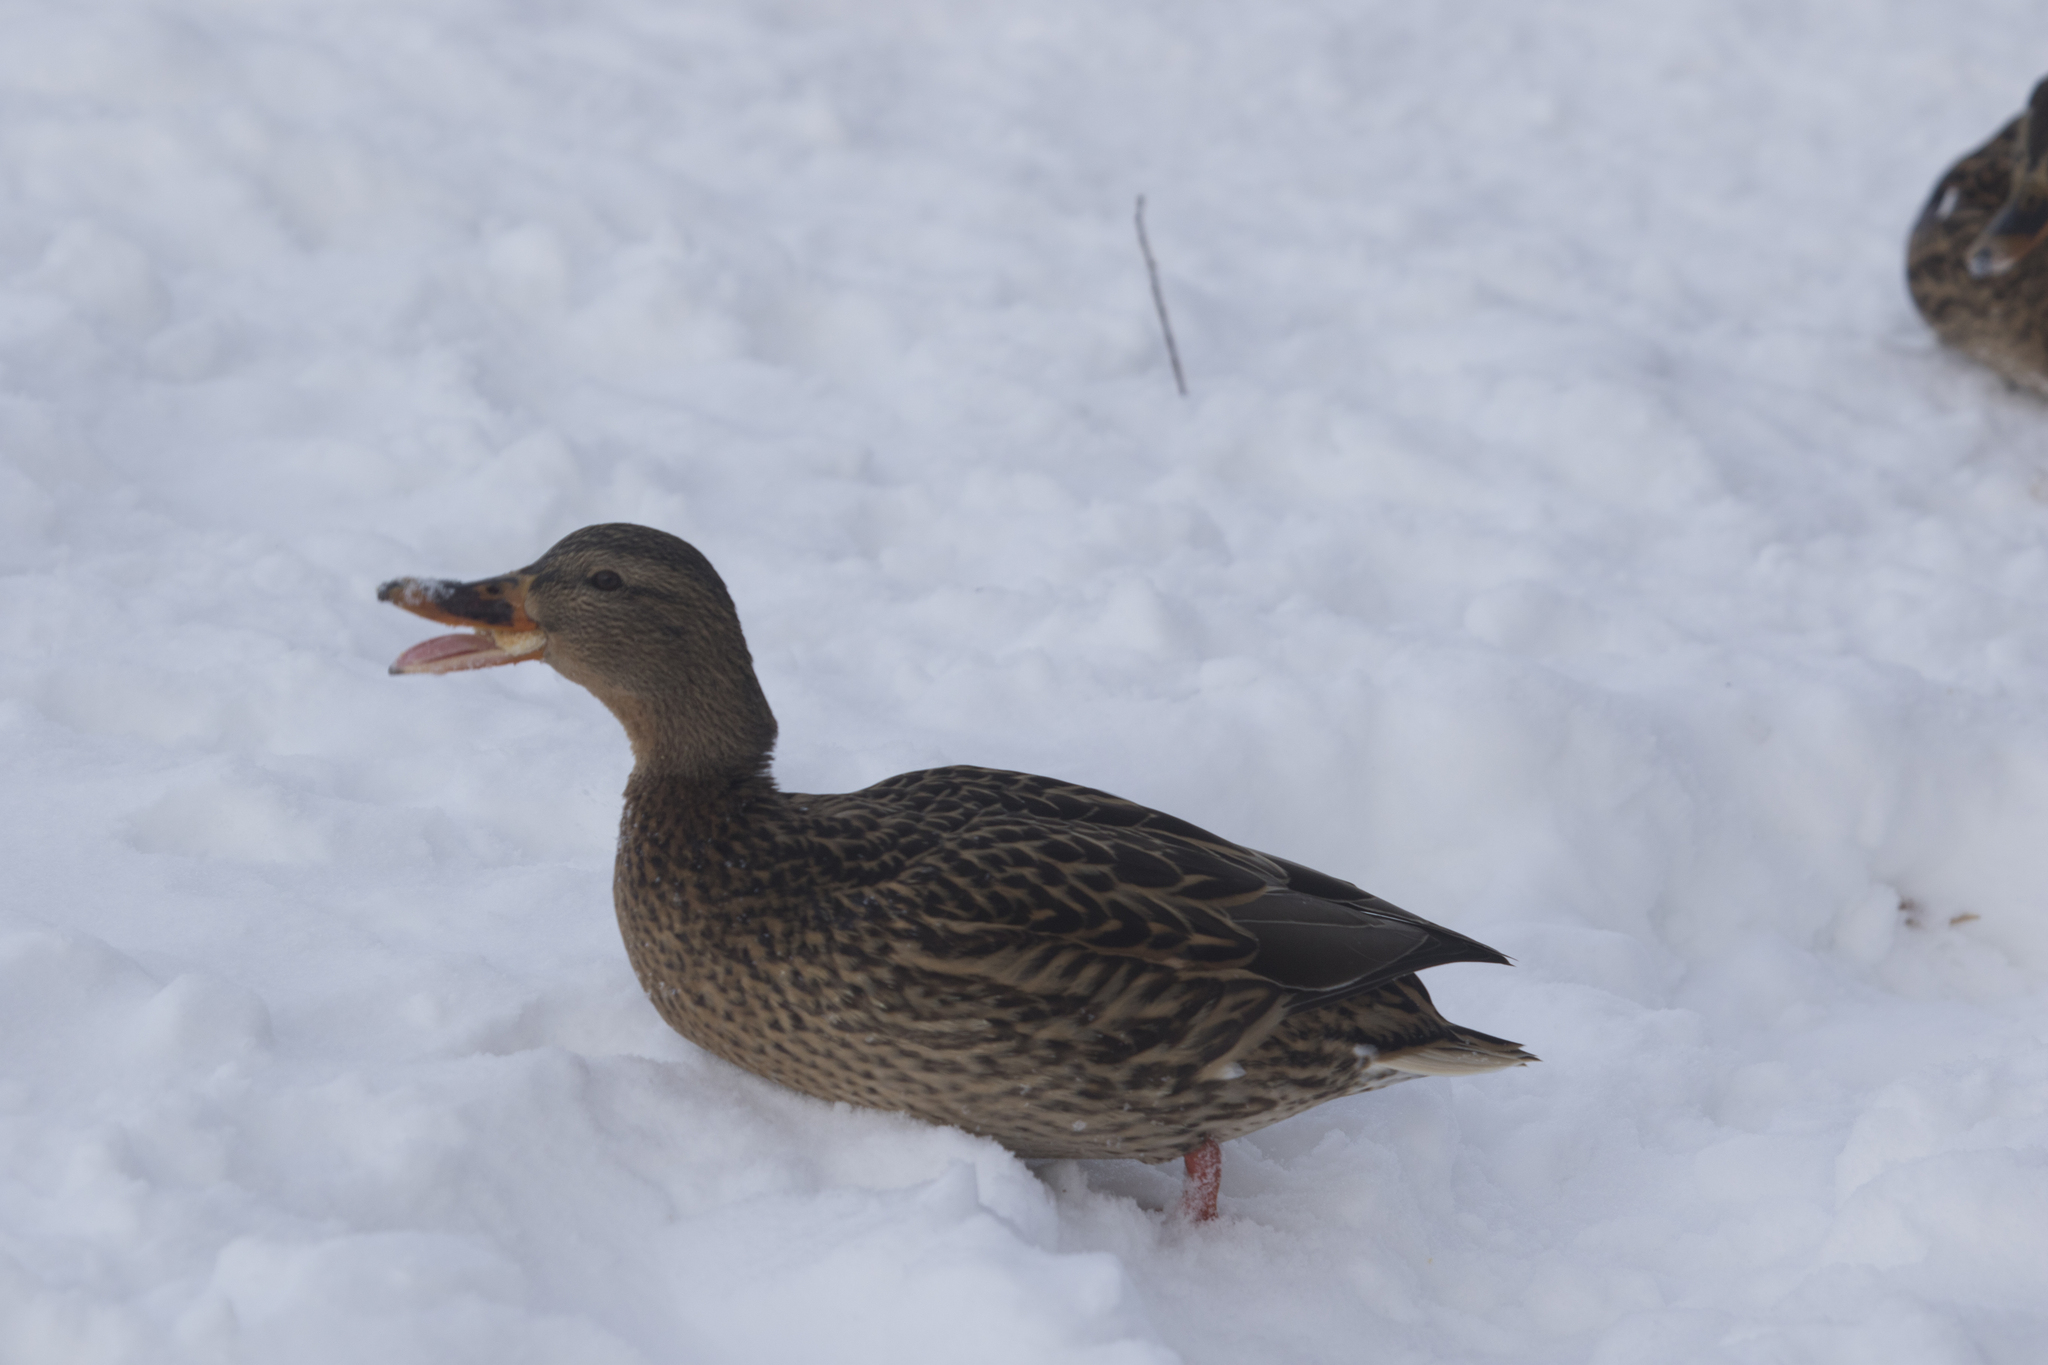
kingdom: Animalia
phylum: Chordata
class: Aves
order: Anseriformes
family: Anatidae
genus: Anas
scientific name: Anas platyrhynchos
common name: Mallard
